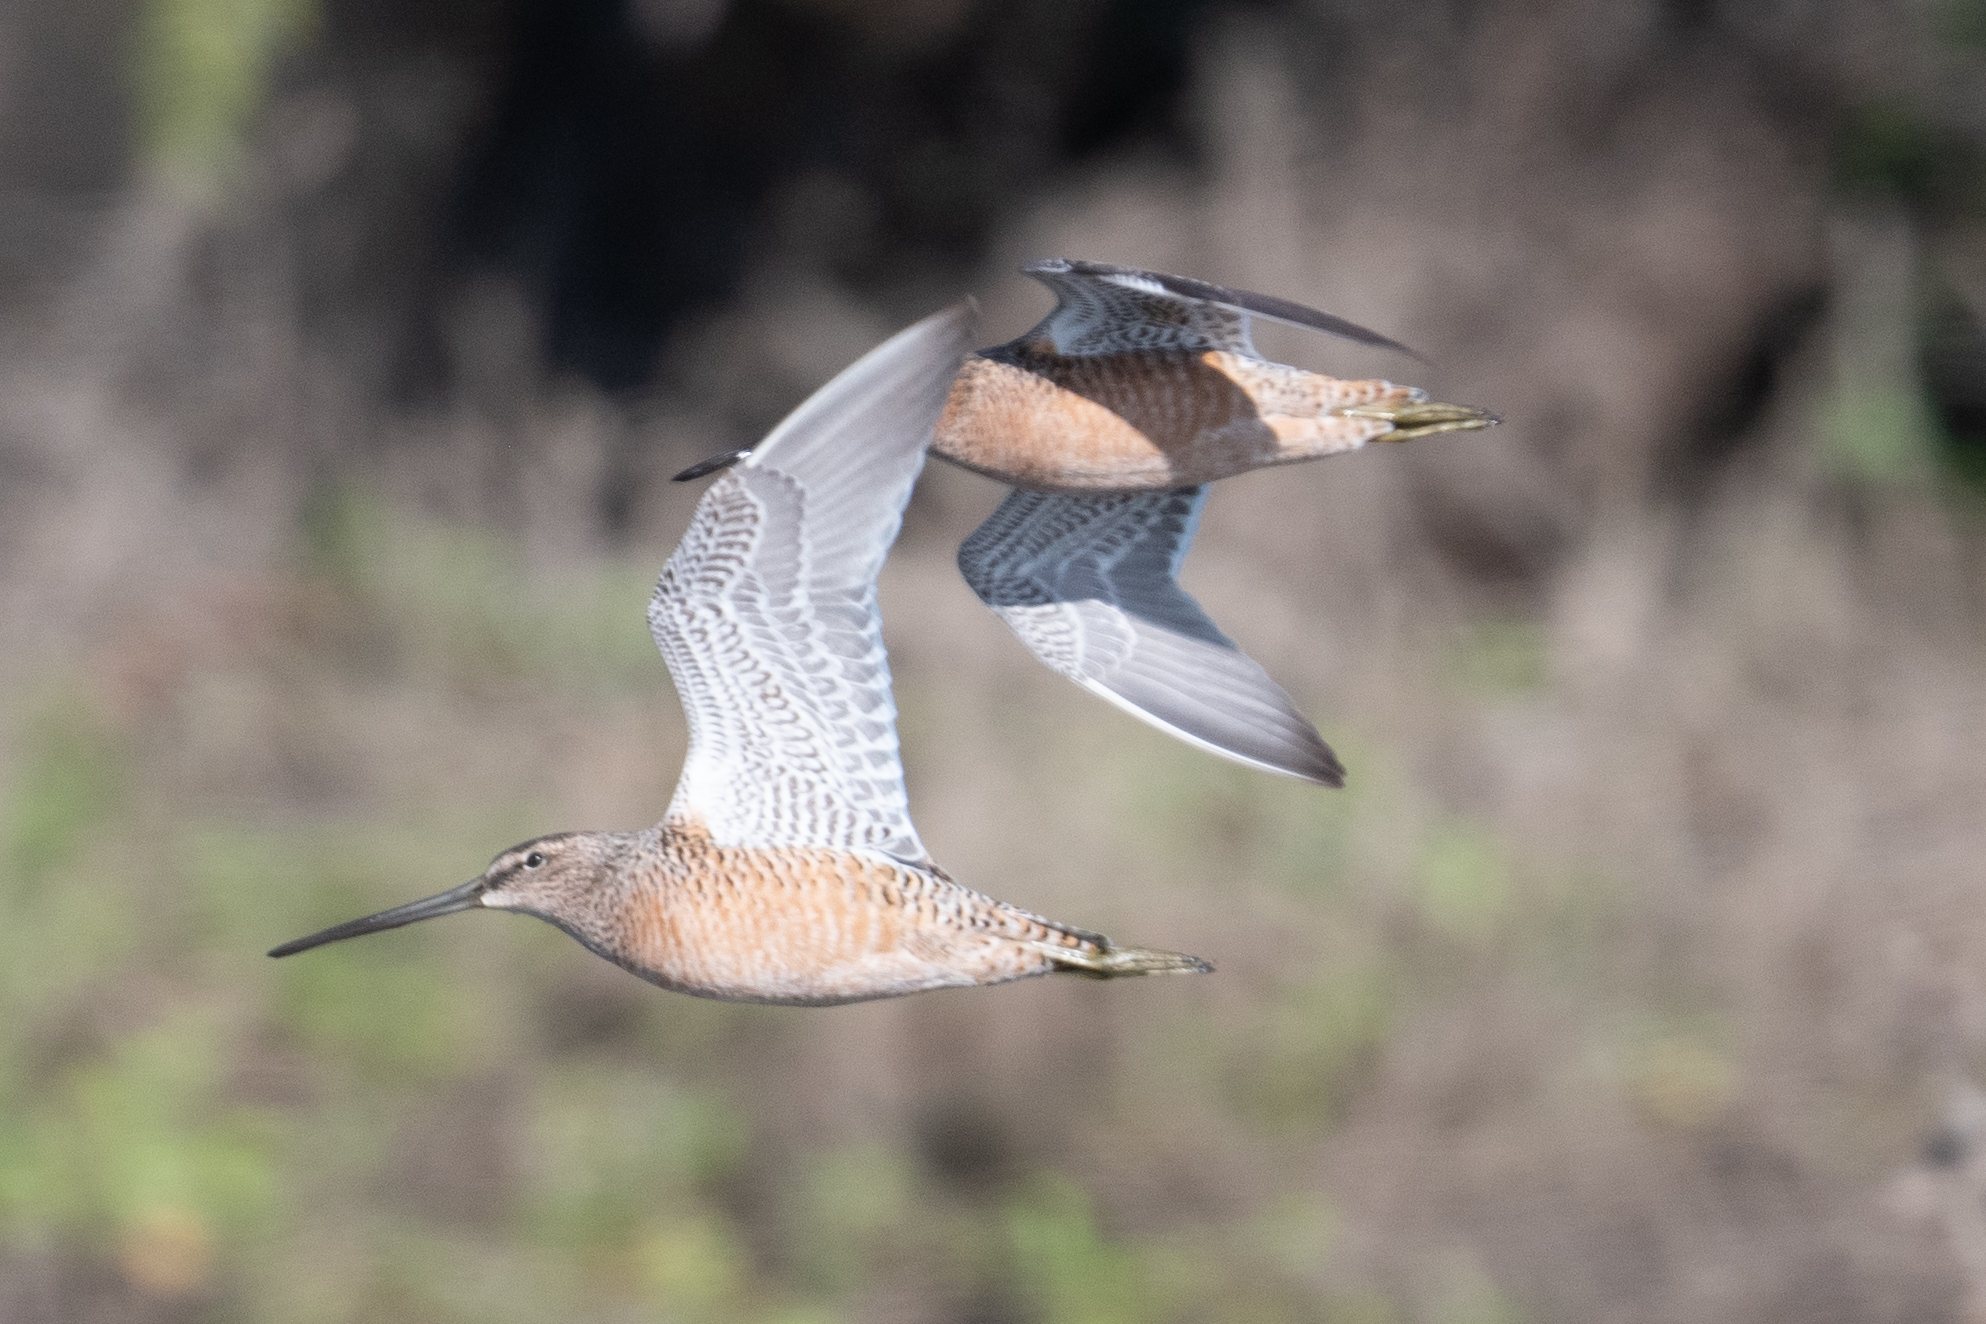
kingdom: Animalia
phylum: Chordata
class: Aves
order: Charadriiformes
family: Scolopacidae
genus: Limnodromus
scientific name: Limnodromus scolopaceus
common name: Long-billed dowitcher
